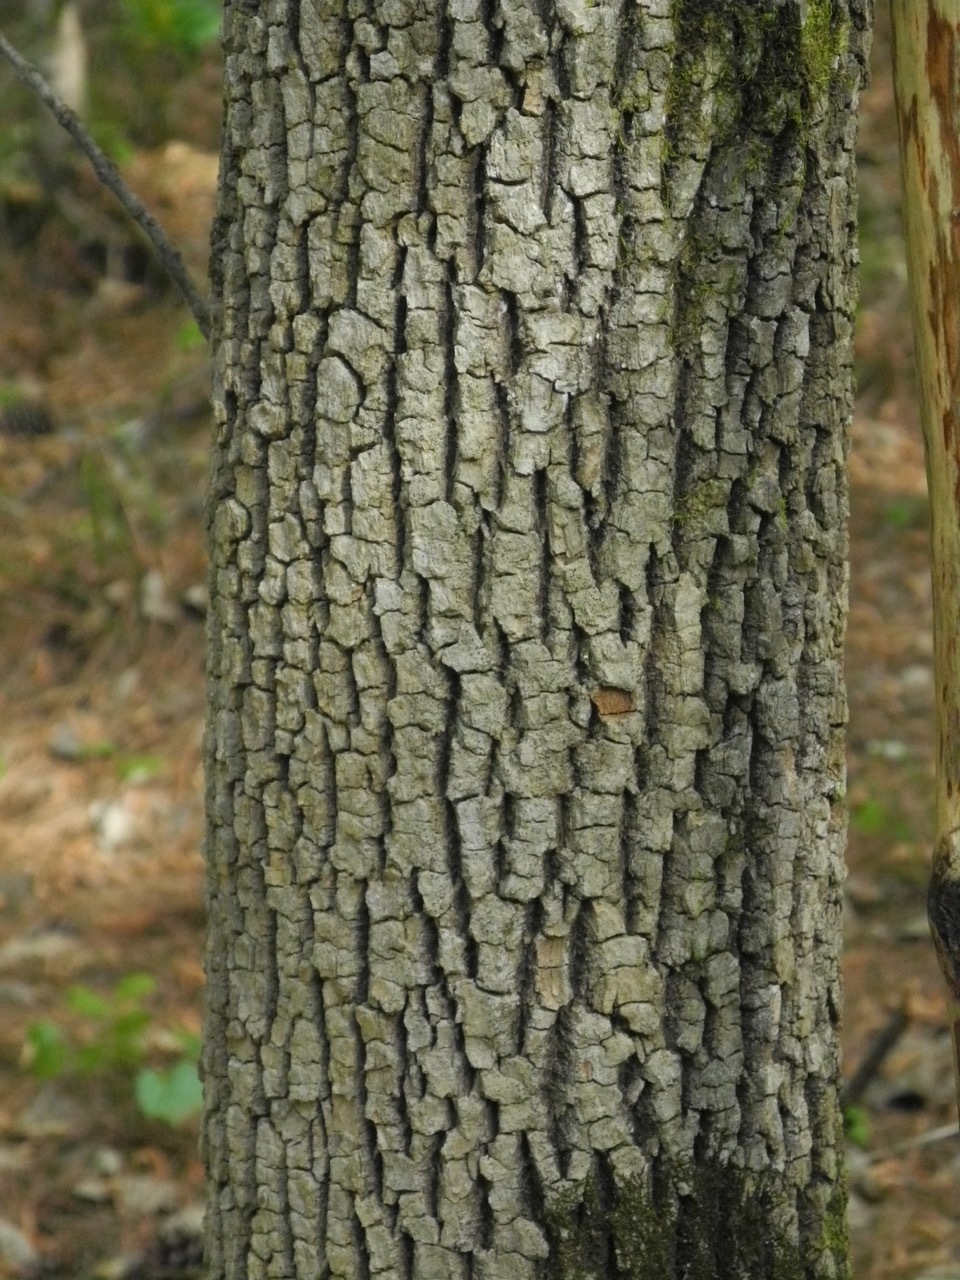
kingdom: Plantae
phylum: Tracheophyta
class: Magnoliopsida
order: Lamiales
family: Oleaceae
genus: Fraxinus
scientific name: Fraxinus pennsylvanica
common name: Green ash
